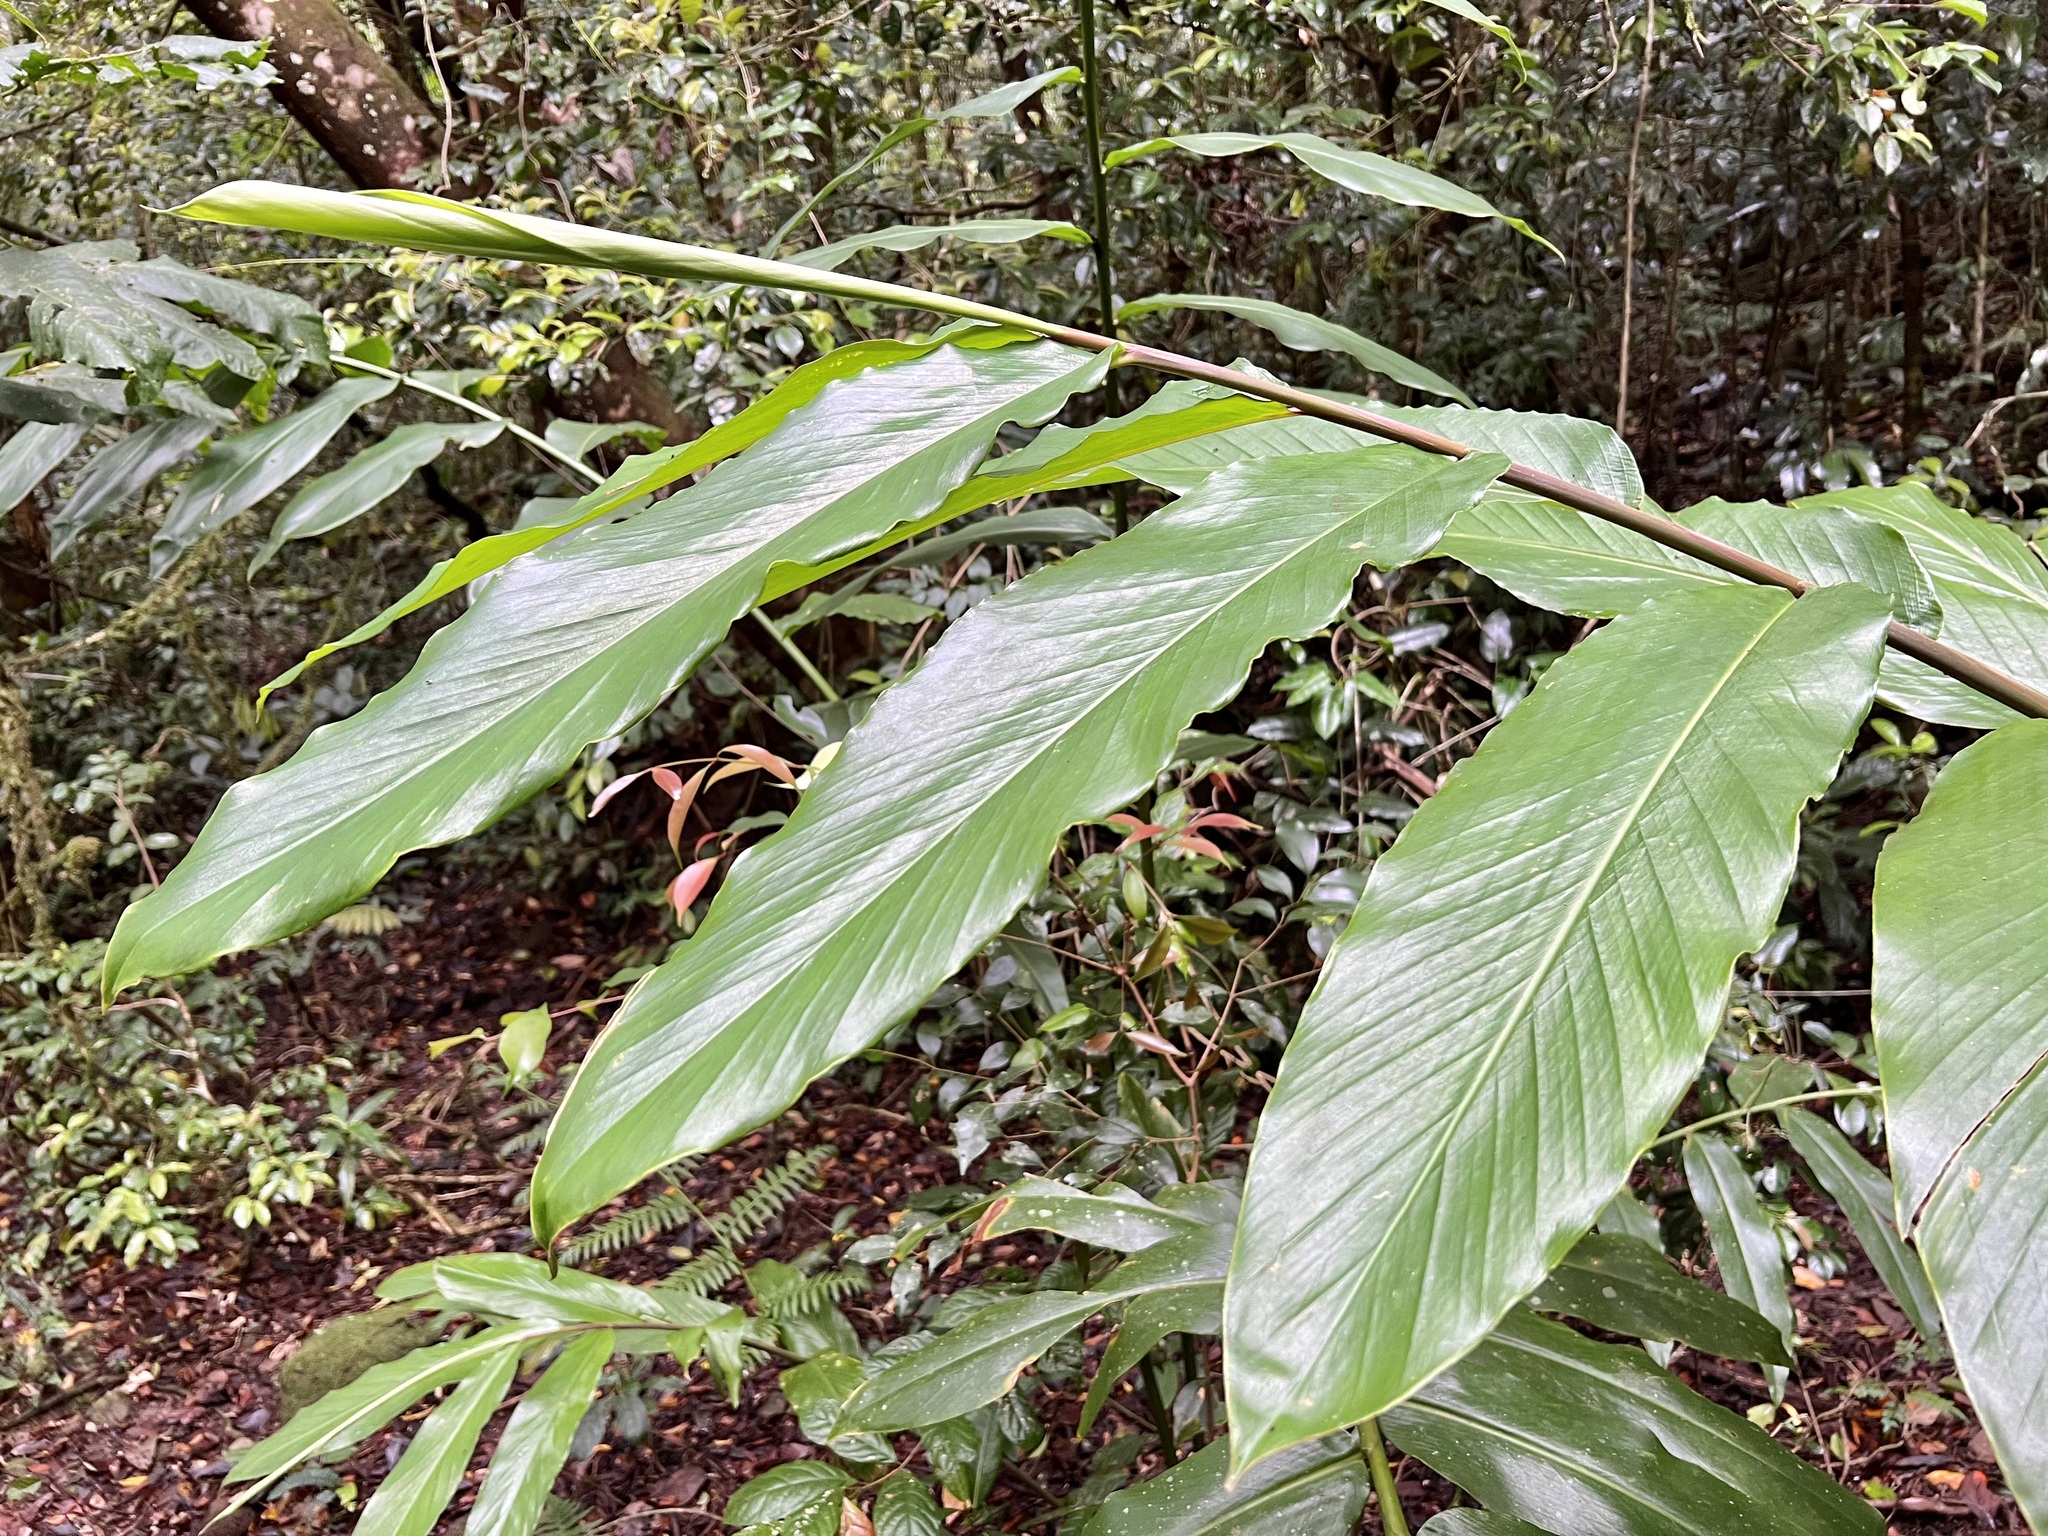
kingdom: Plantae
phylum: Tracheophyta
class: Liliopsida
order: Zingiberales
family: Zingiberaceae
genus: Pleuranthodium
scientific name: Pleuranthodium racemigerum
